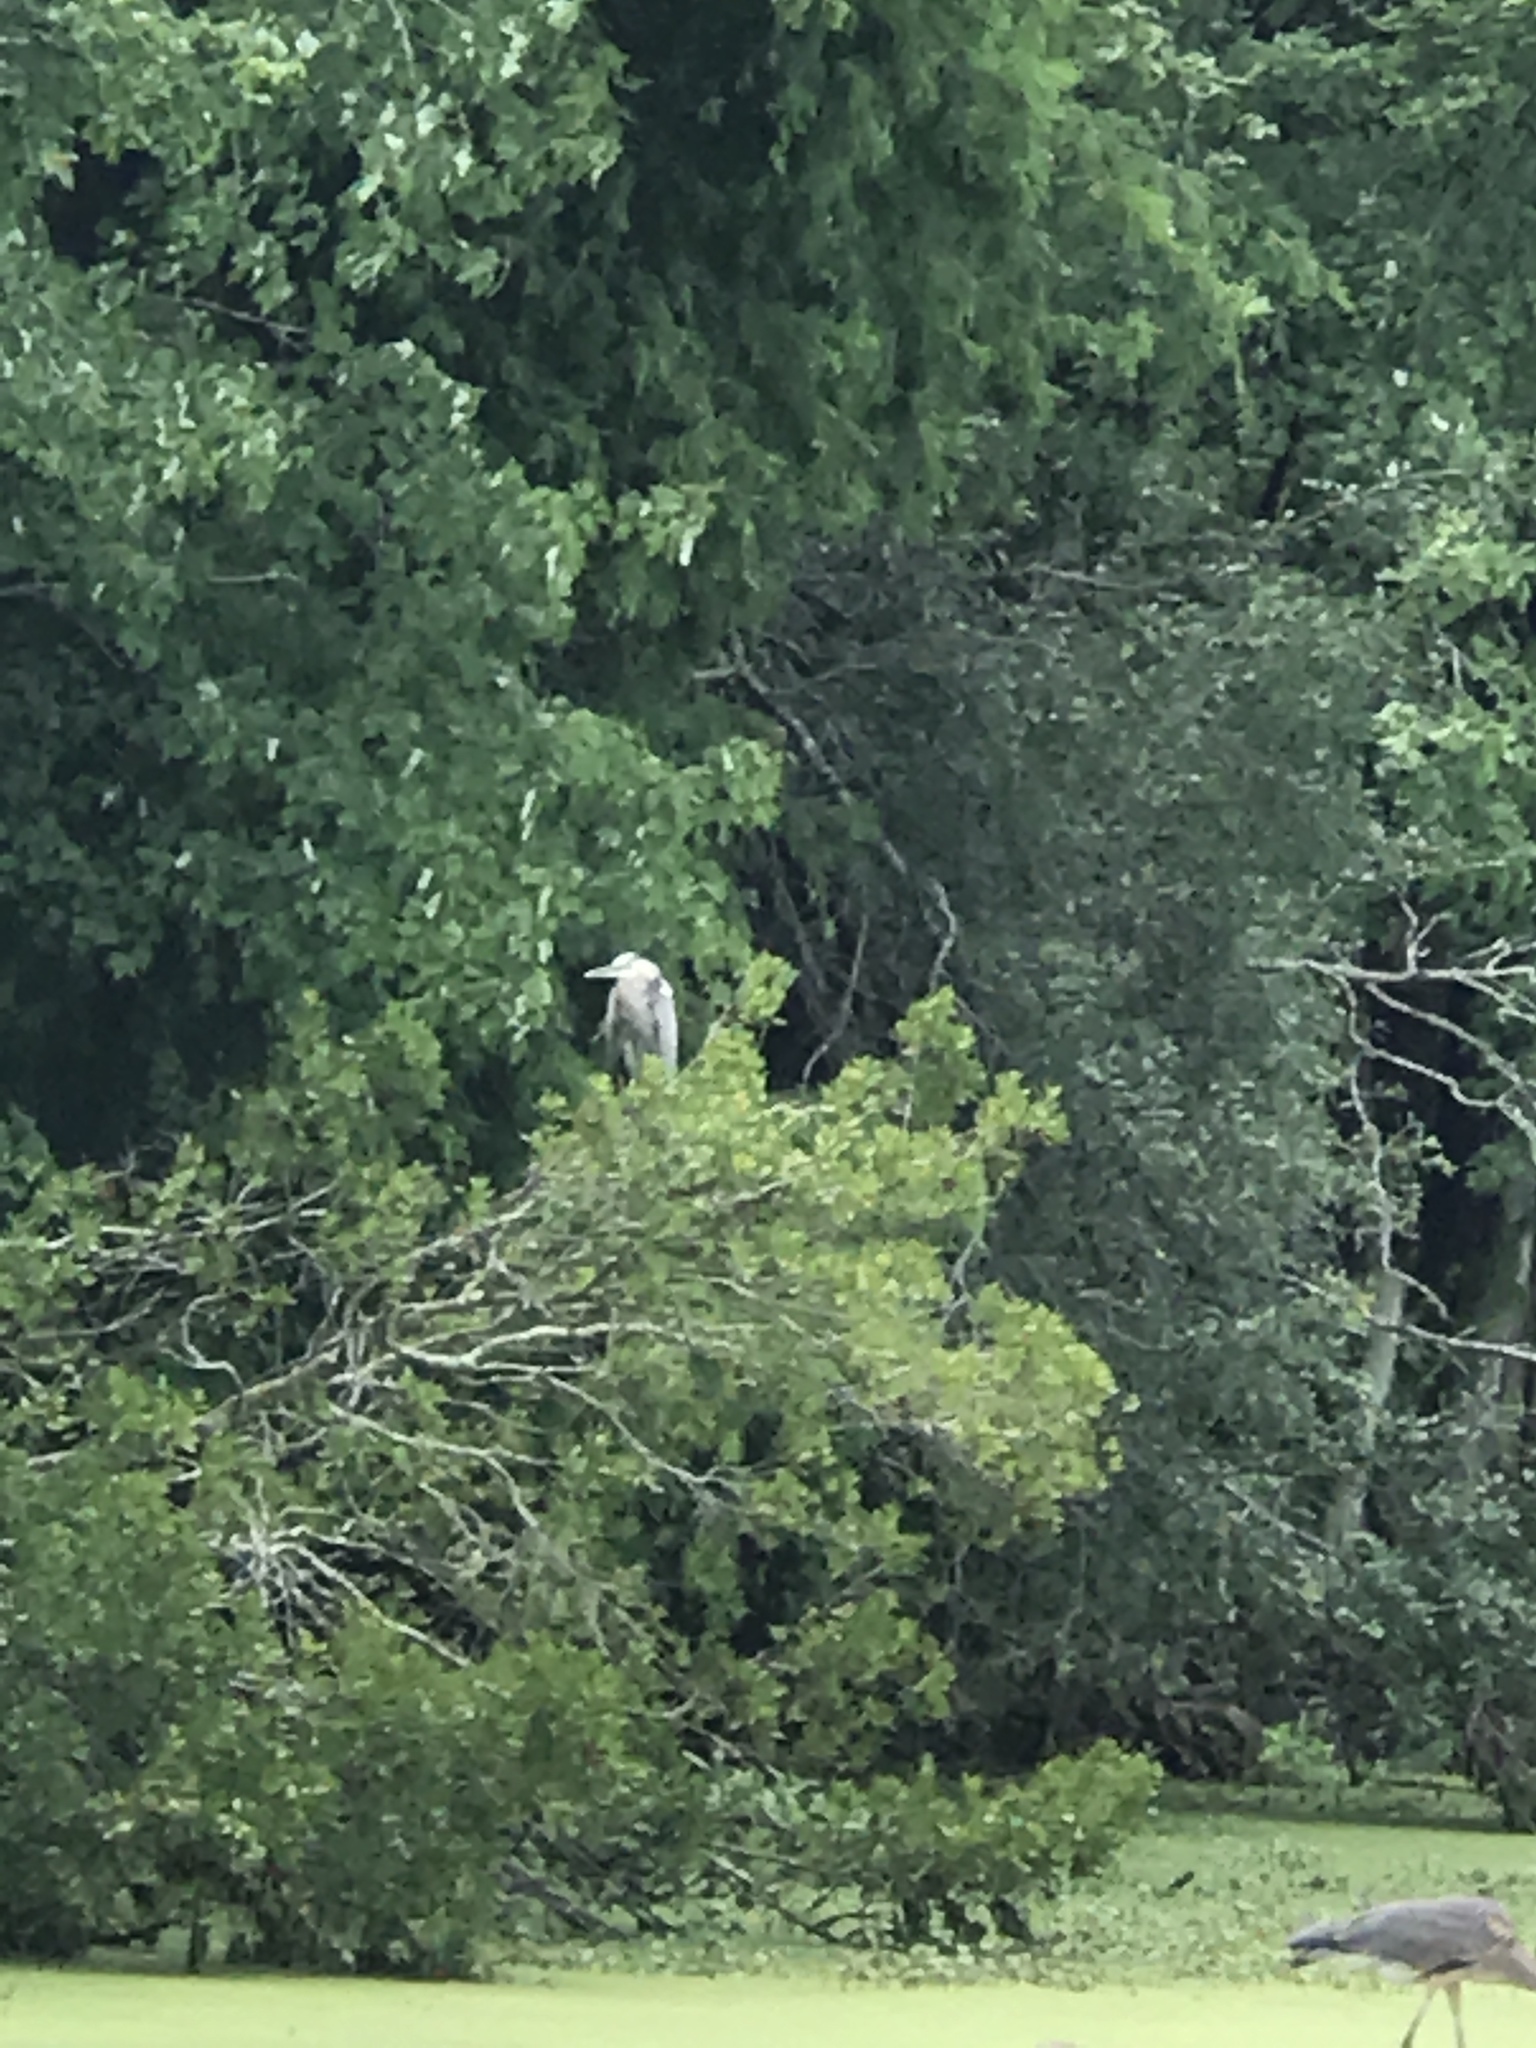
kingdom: Animalia
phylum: Chordata
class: Aves
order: Pelecaniformes
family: Ardeidae
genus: Ardea
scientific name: Ardea herodias
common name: Great blue heron
